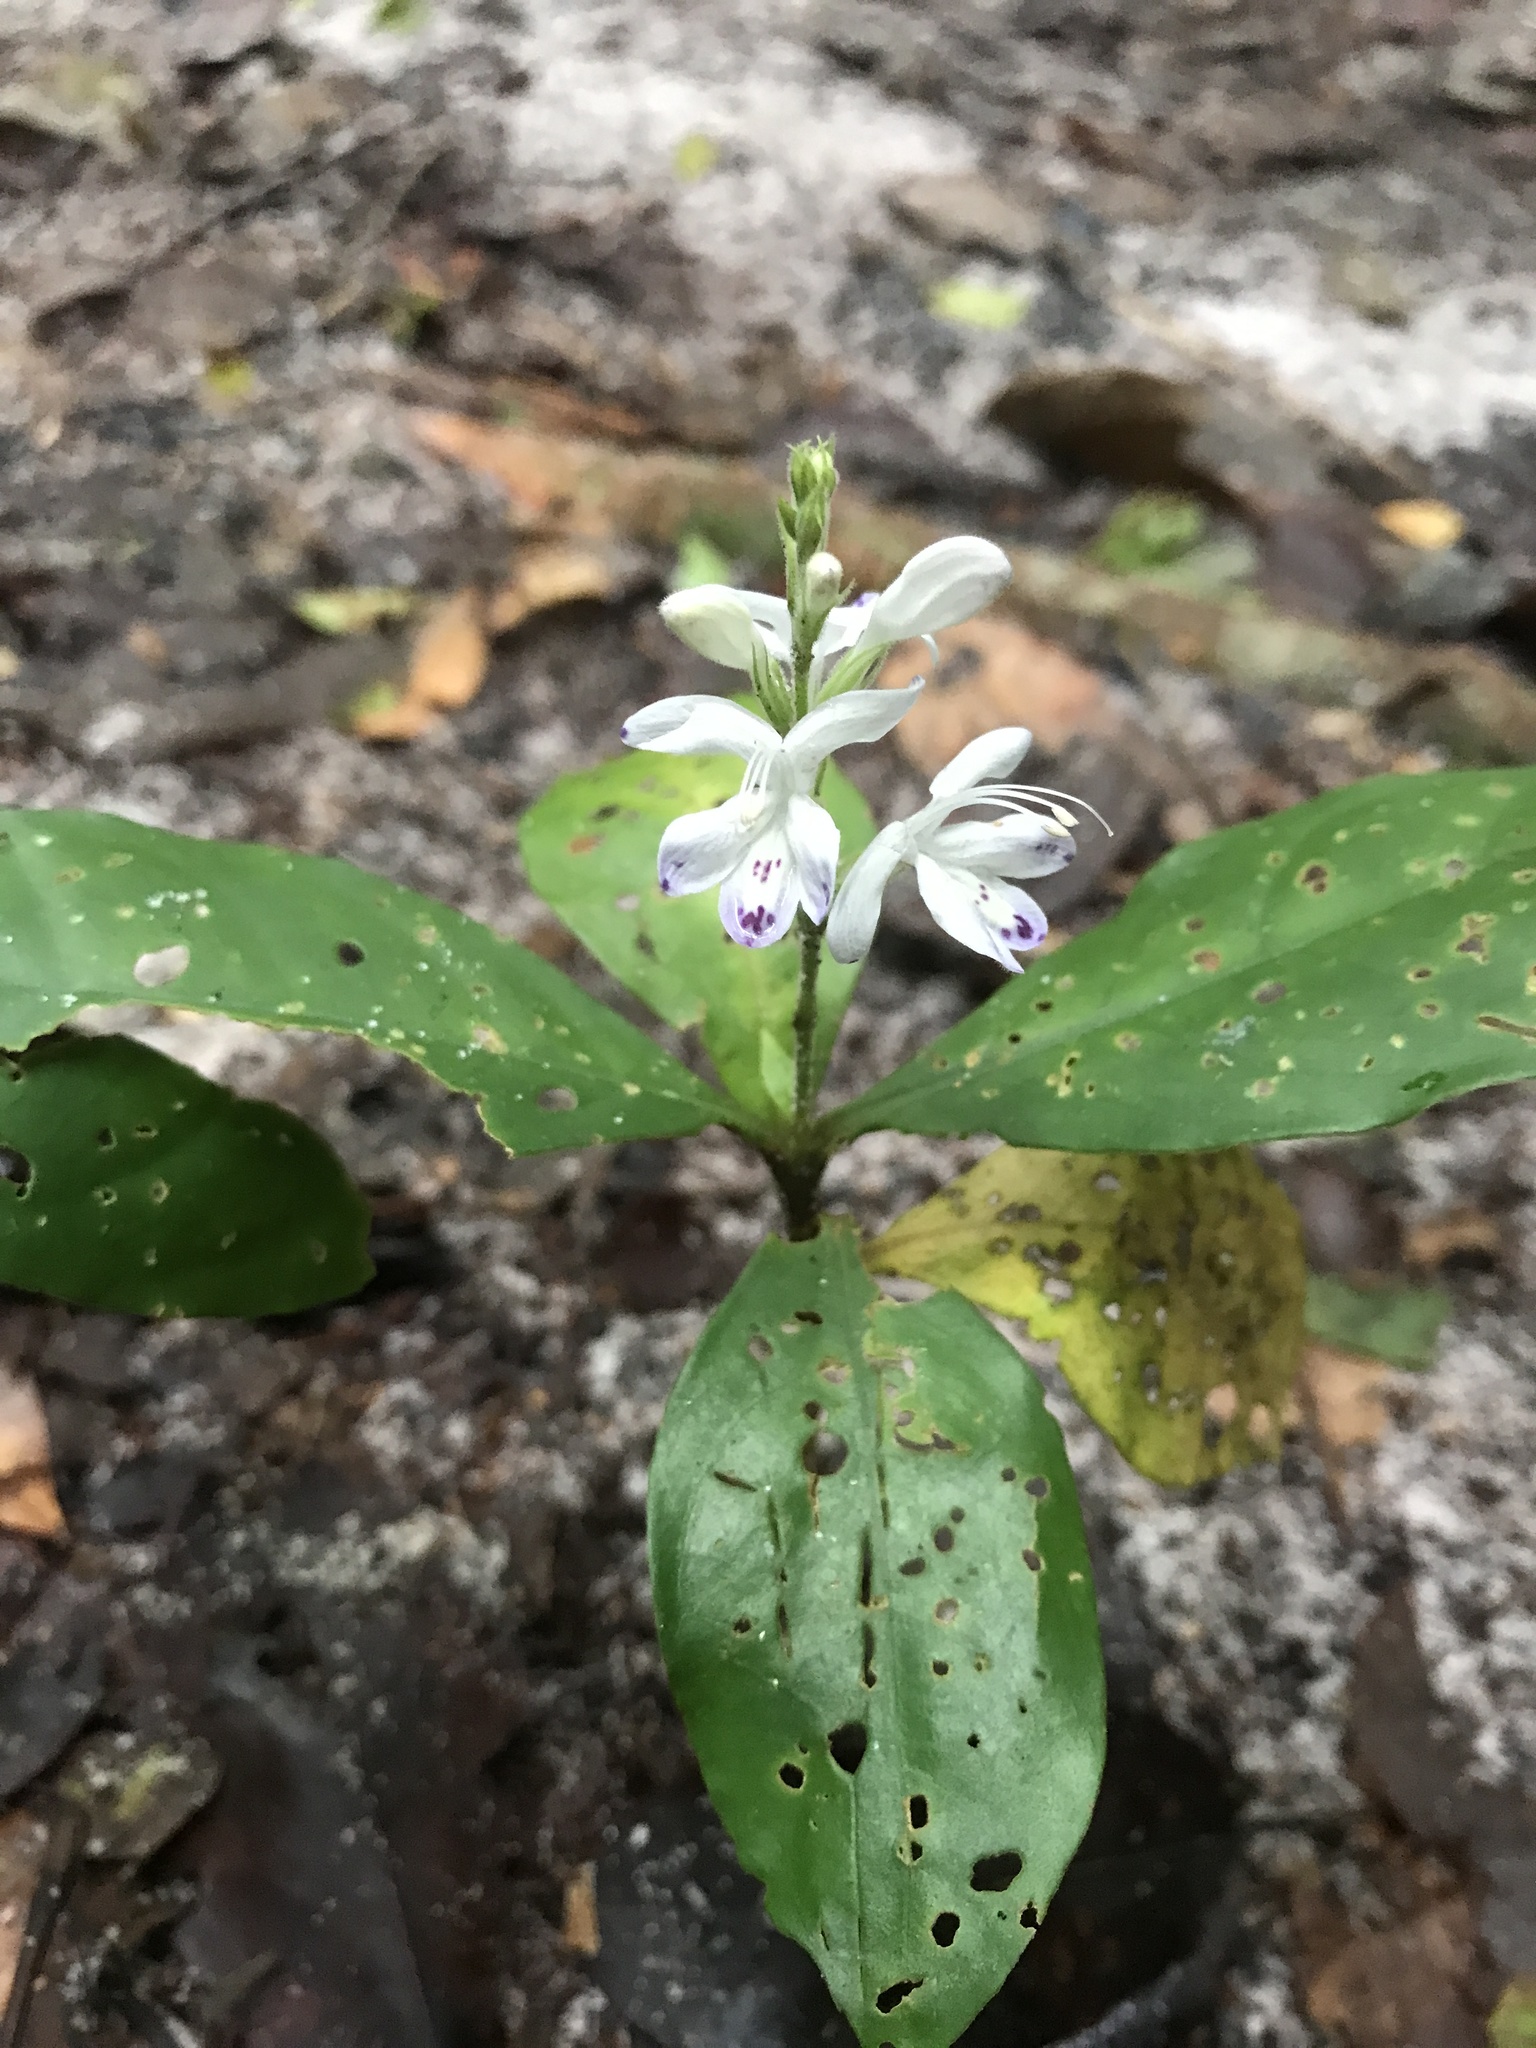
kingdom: Plantae
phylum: Tracheophyta
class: Magnoliopsida
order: Lamiales
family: Acanthaceae
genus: Pulchranthus
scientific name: Pulchranthus adenostachyus
